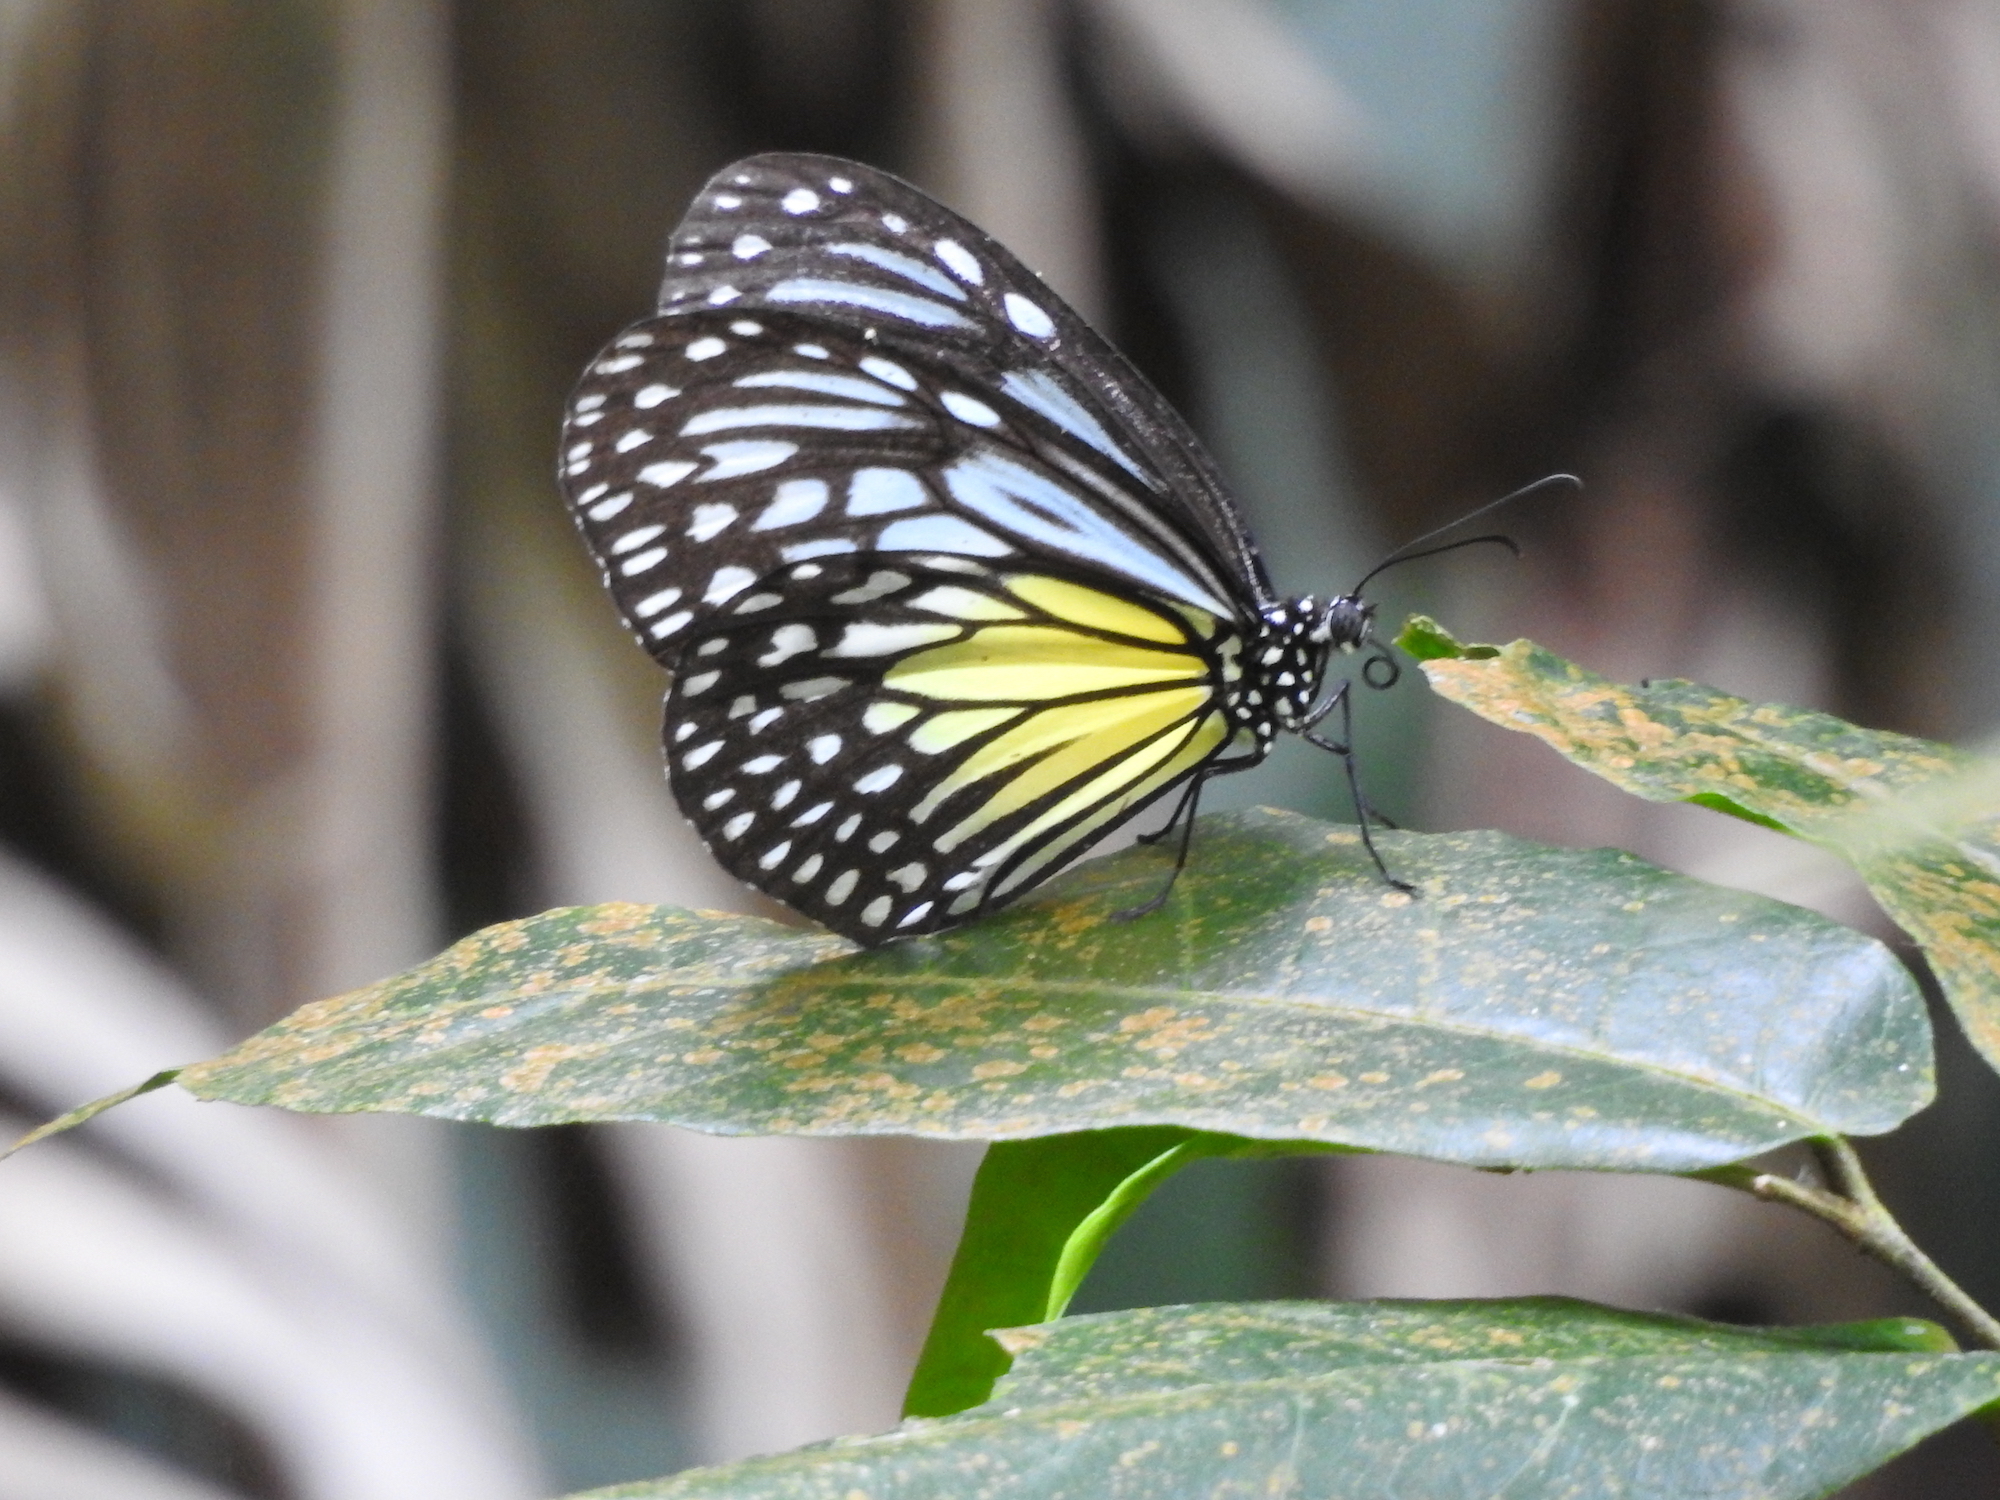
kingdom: Animalia
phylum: Arthropoda
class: Insecta
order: Lepidoptera
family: Nymphalidae
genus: Parantica
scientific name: Parantica aspasia
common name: Yellow glassy tiger
